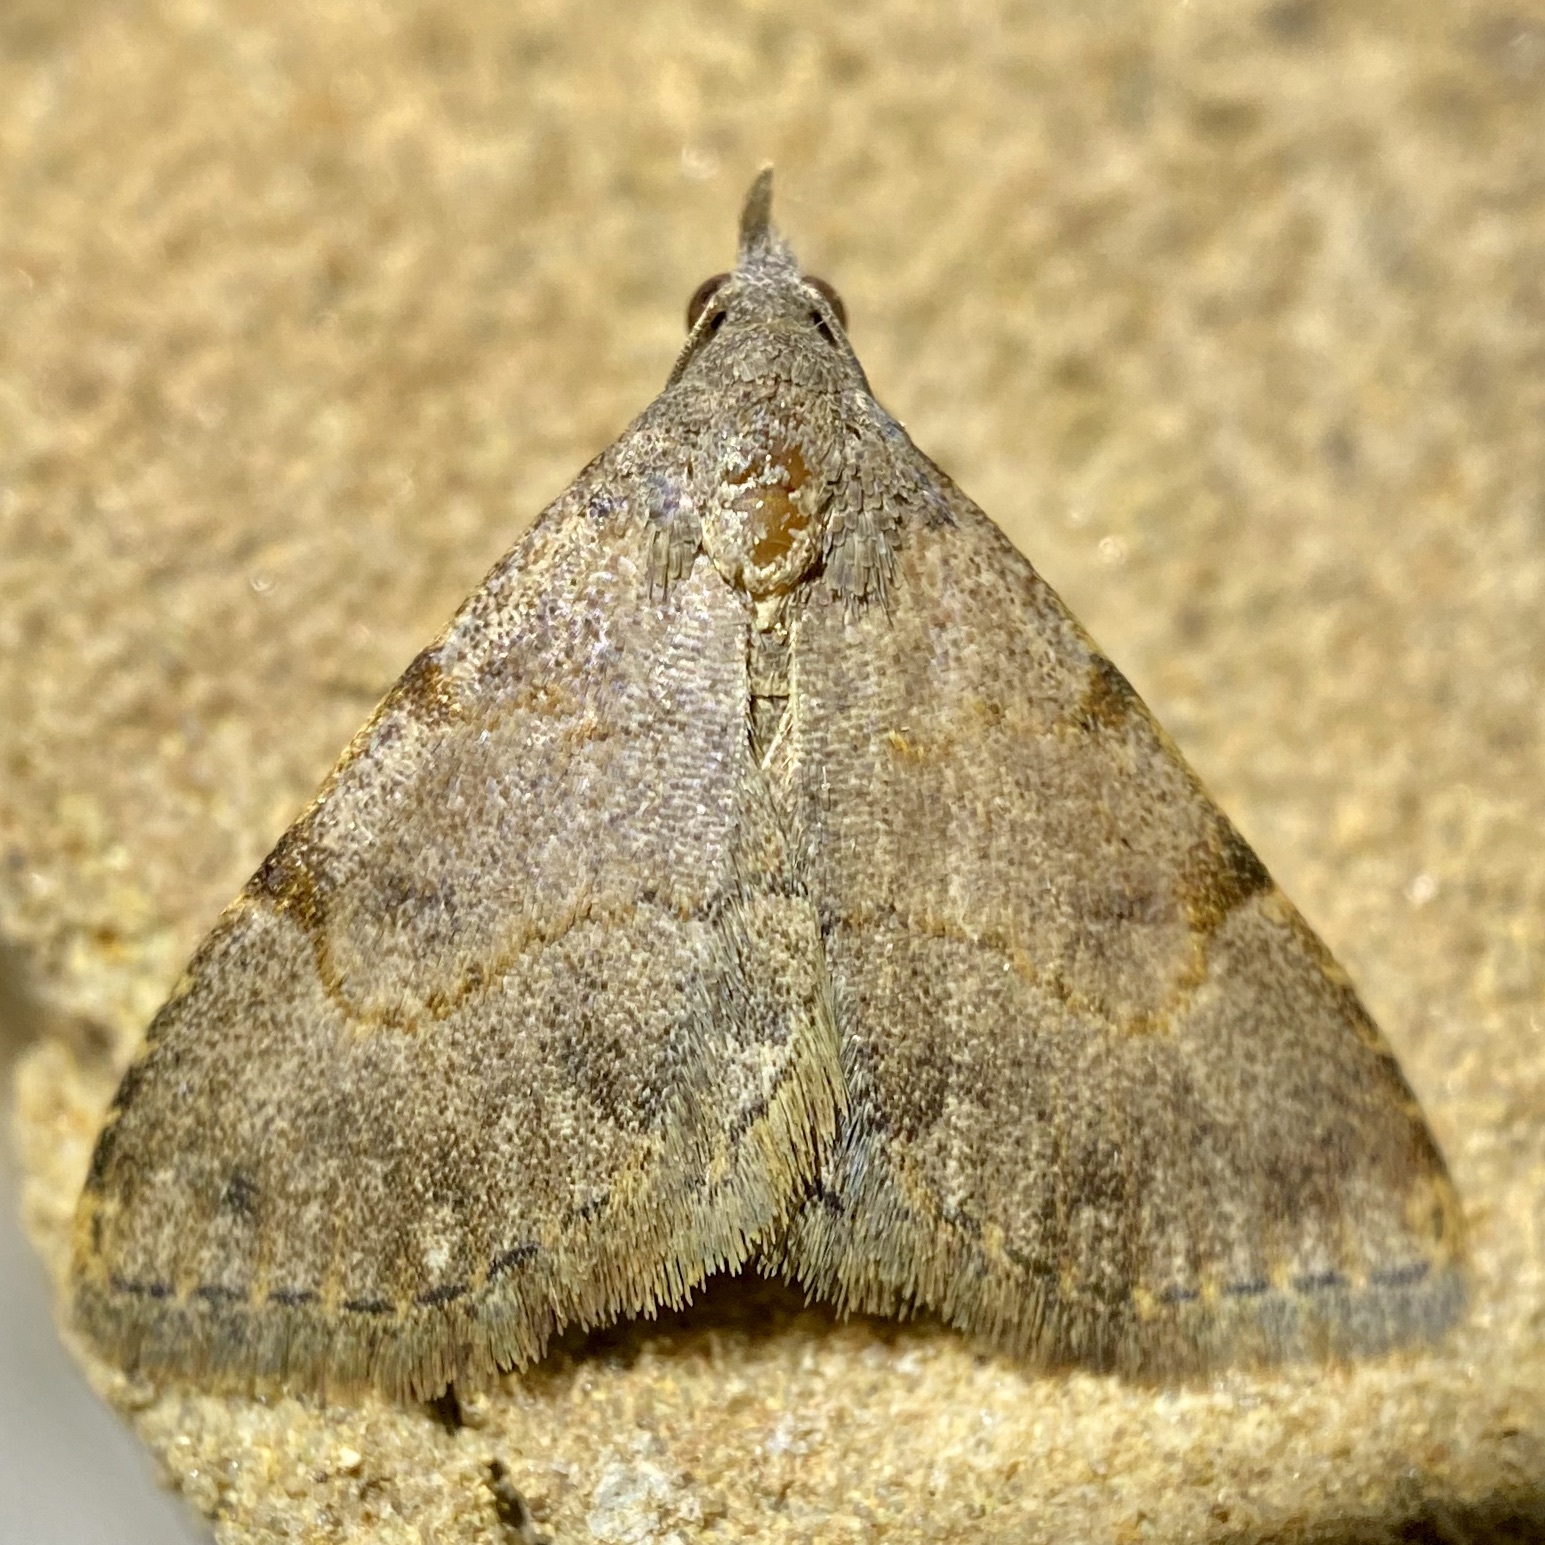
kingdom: Animalia
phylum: Arthropoda
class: Insecta
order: Lepidoptera
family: Erebidae
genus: Nychioptera
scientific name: Nychioptera accola
